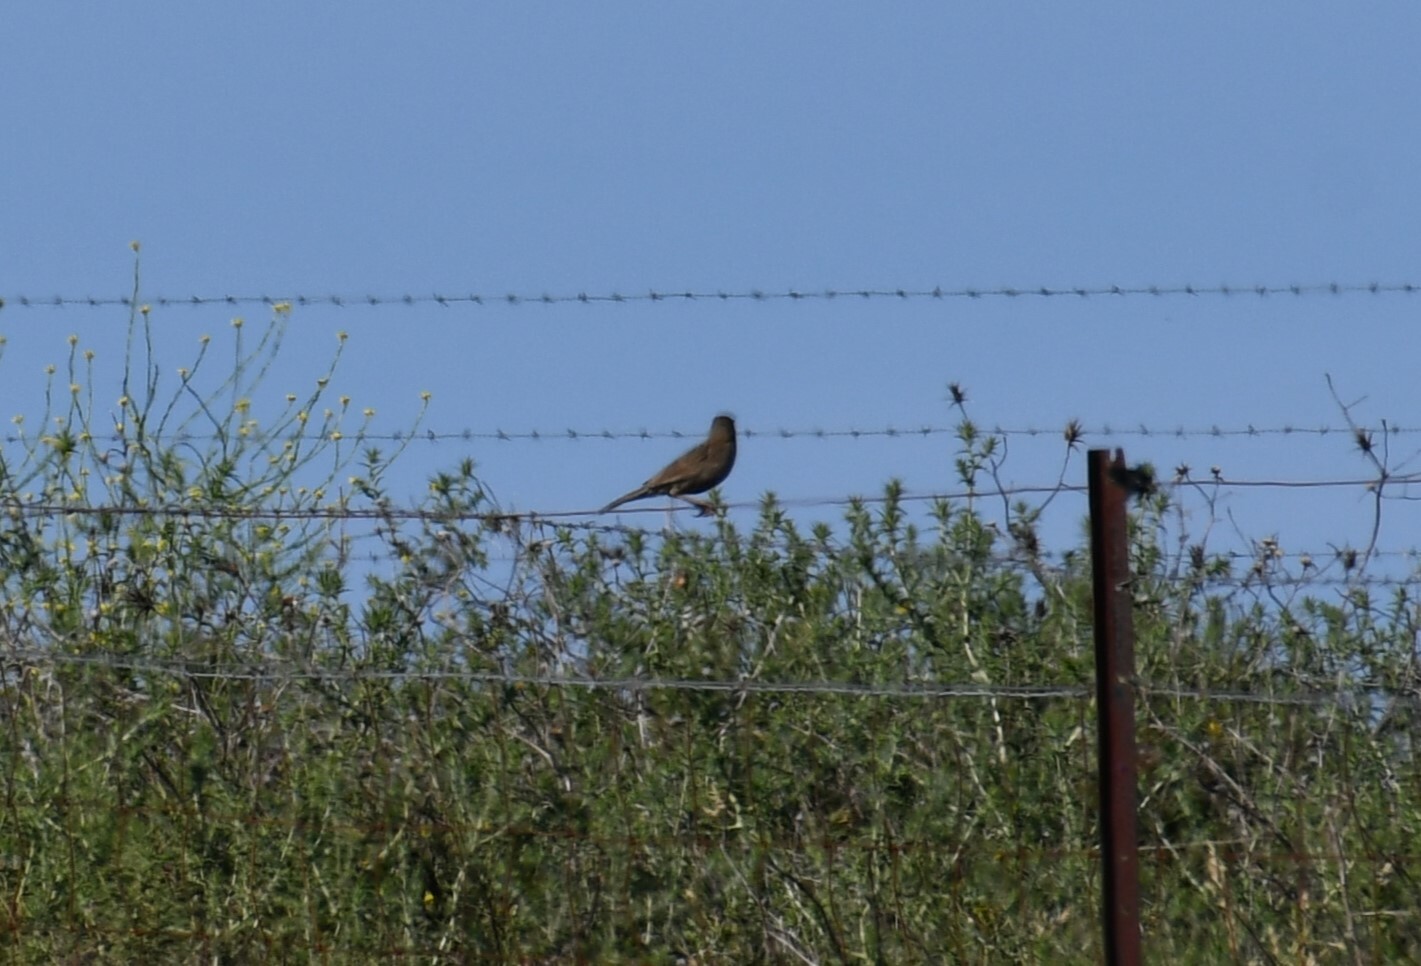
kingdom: Animalia
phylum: Chordata
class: Aves
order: Passeriformes
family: Locustellidae
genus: Megalurus
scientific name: Megalurus cruralis
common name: Brown songlark
